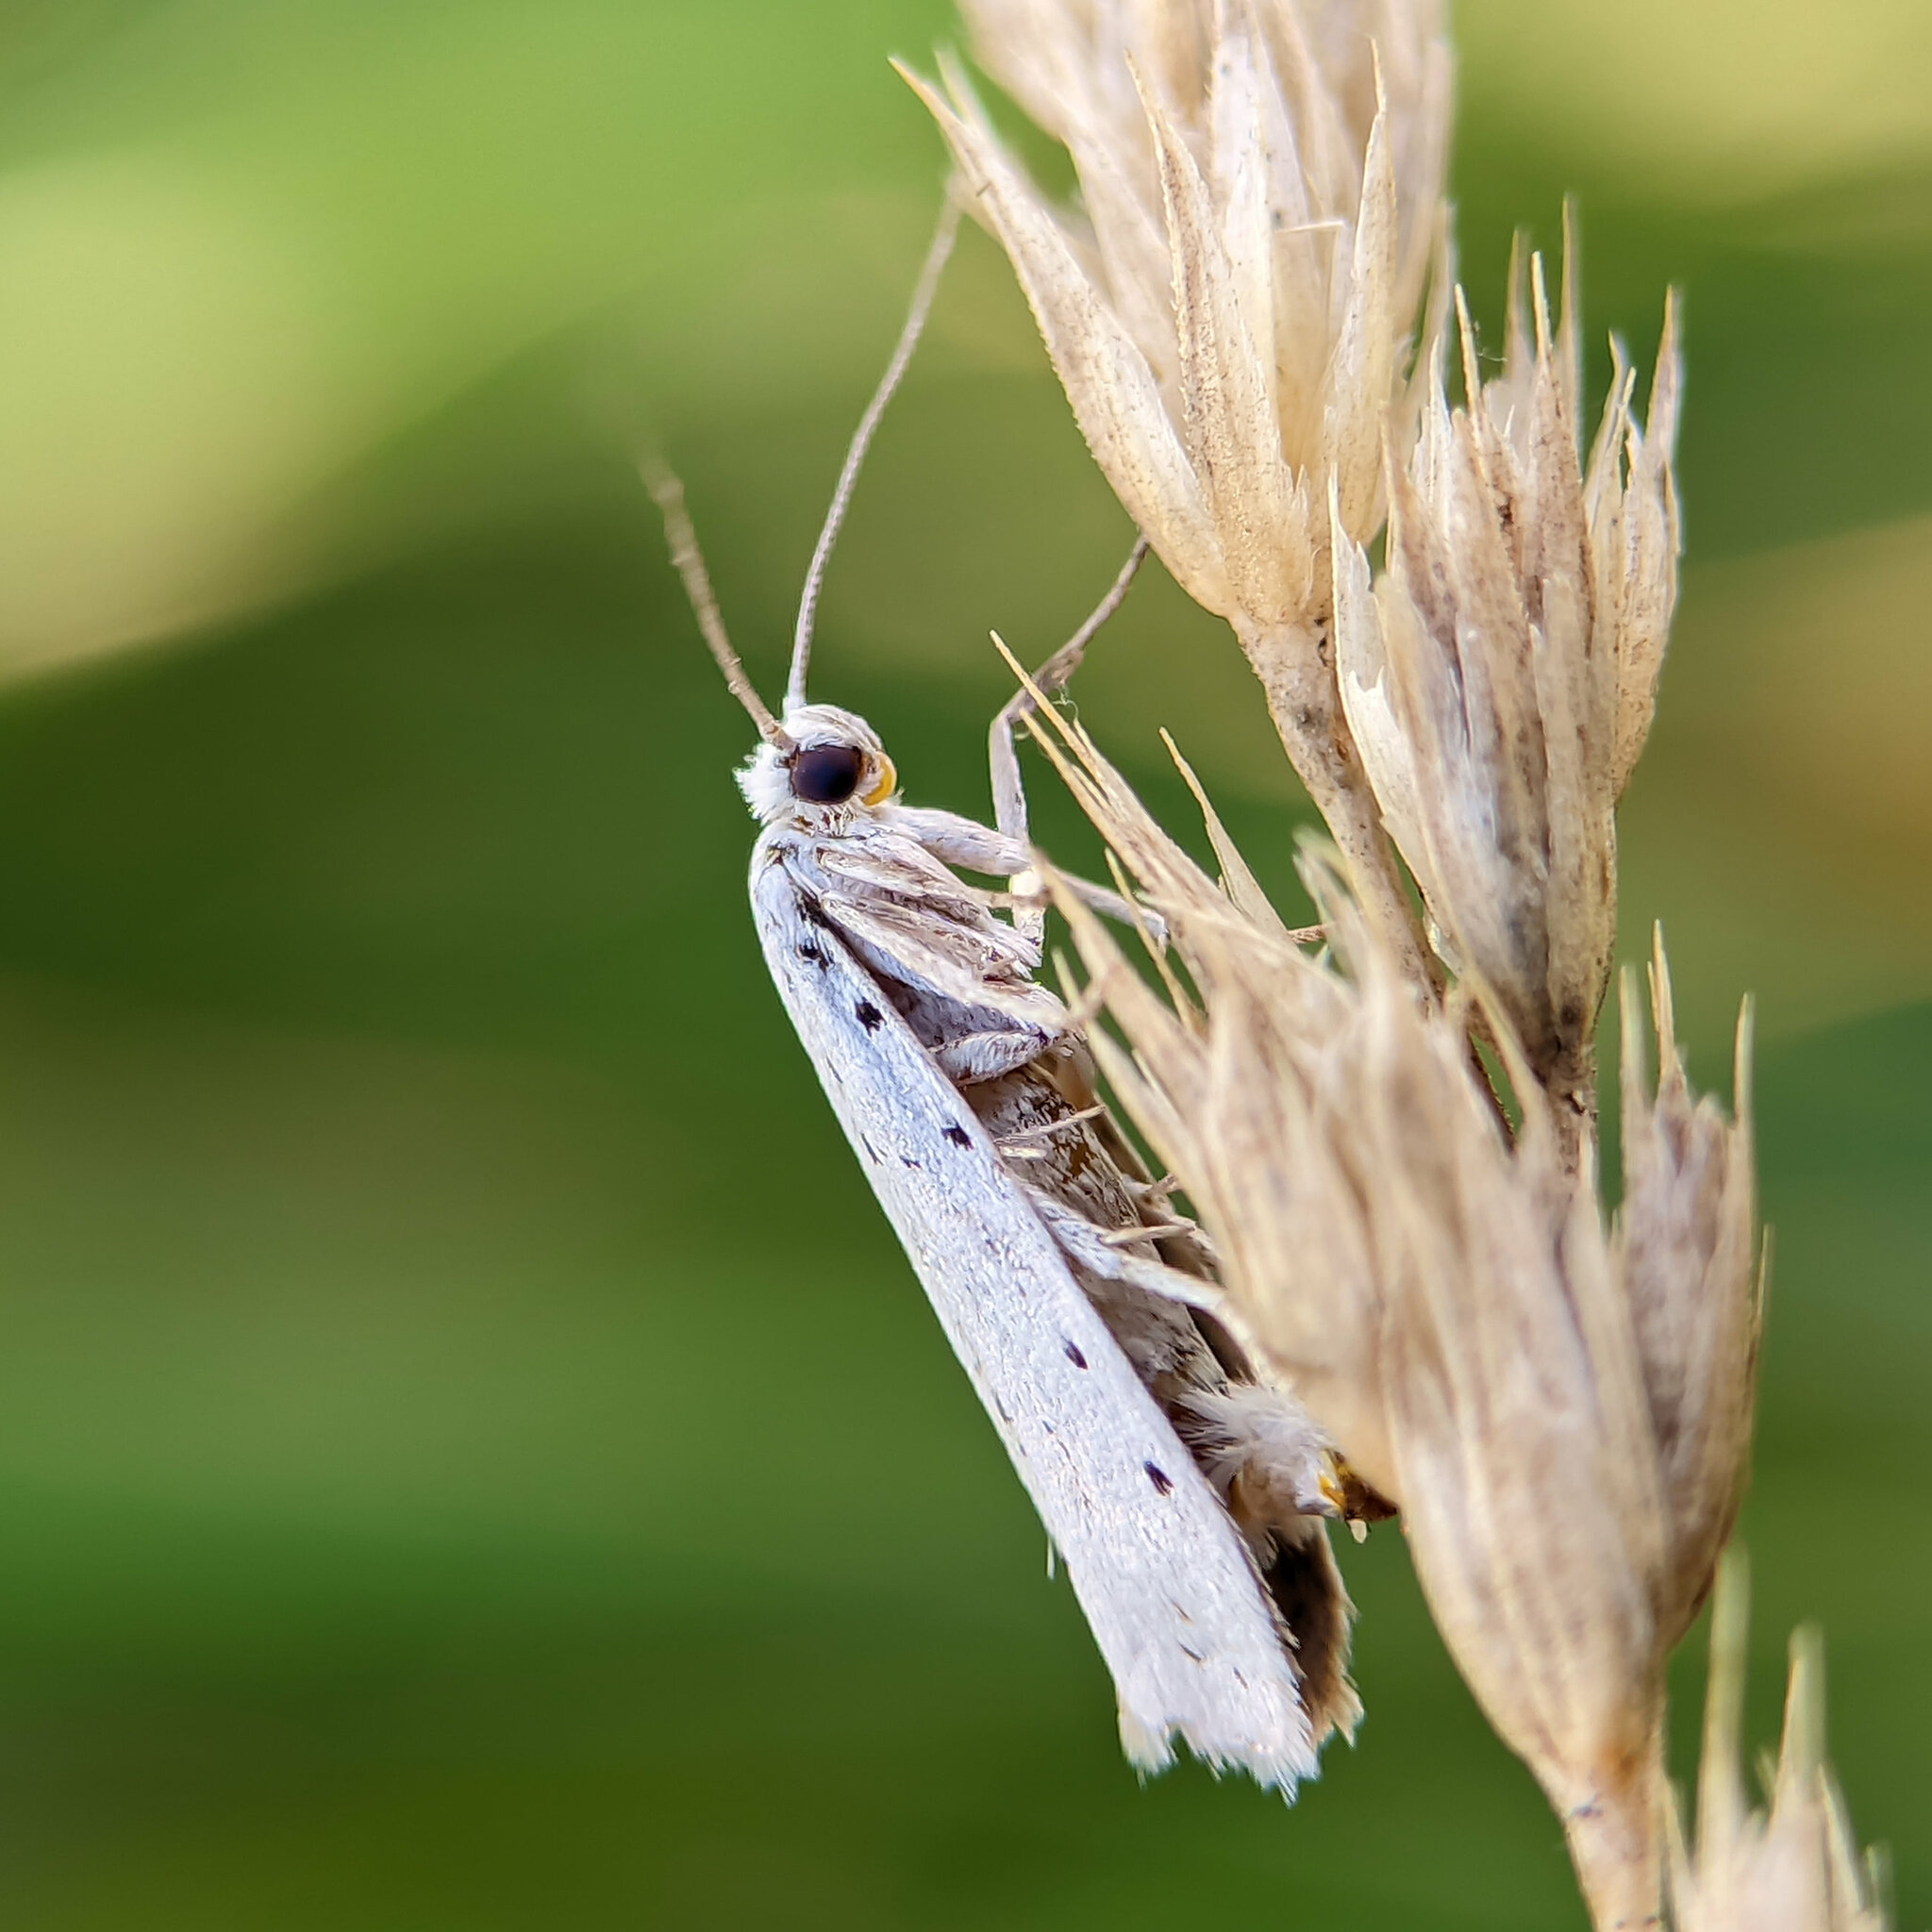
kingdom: Animalia
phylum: Arthropoda
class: Insecta
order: Lepidoptera
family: Yponomeutidae
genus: Yponomeuta
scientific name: Yponomeuta
